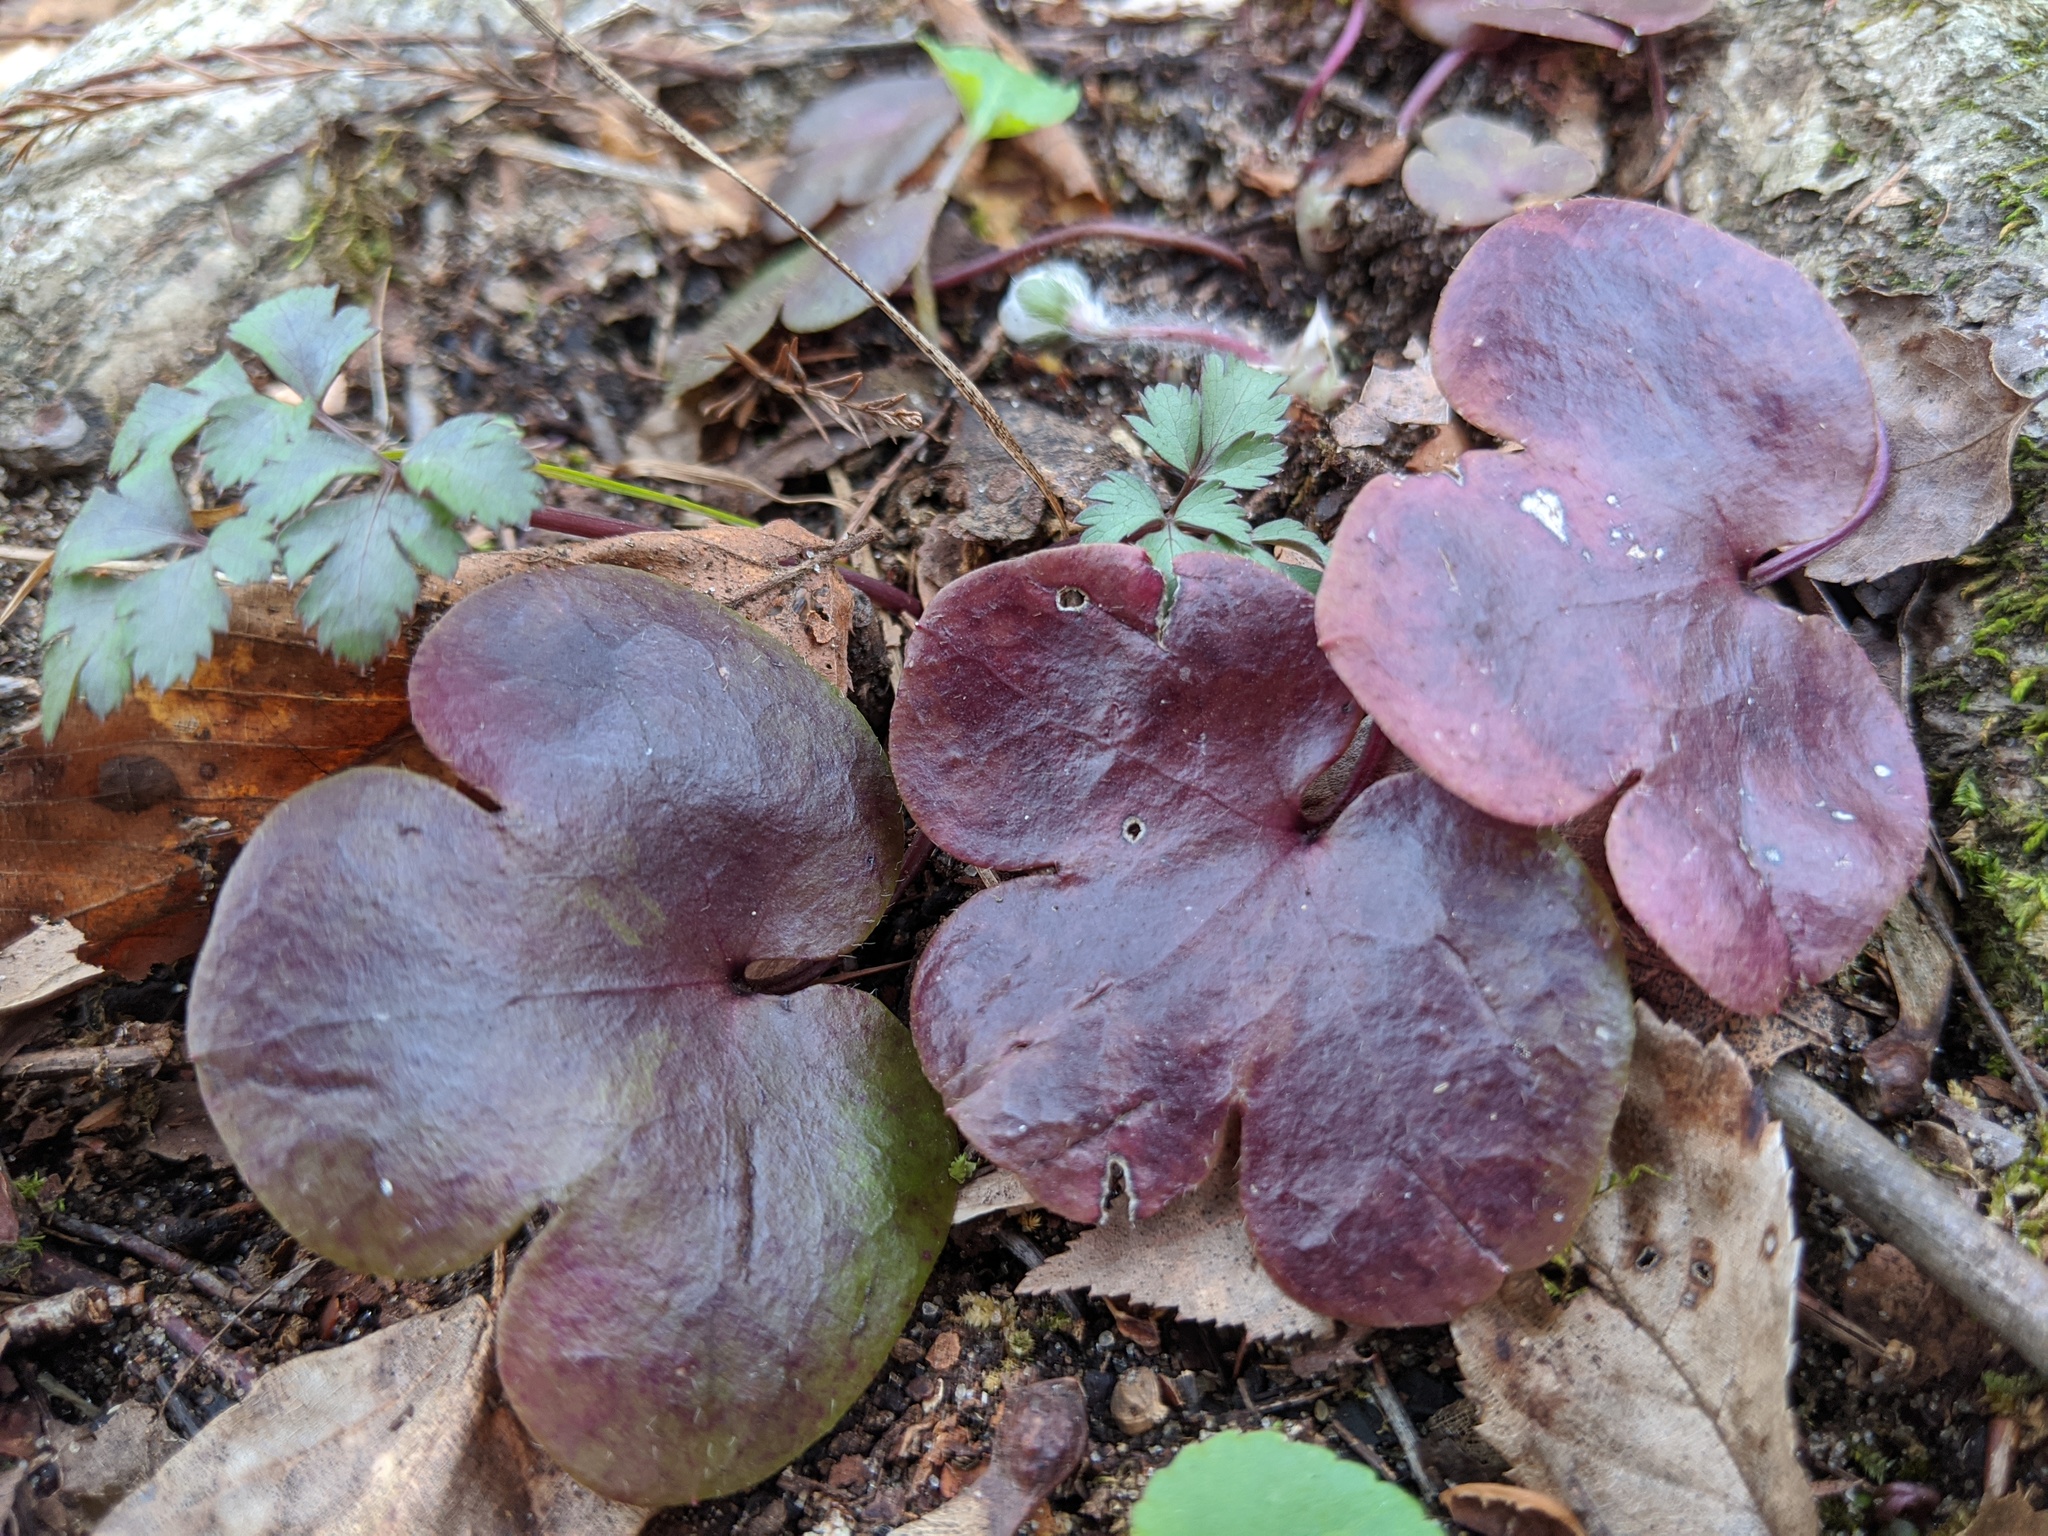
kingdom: Plantae
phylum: Tracheophyta
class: Magnoliopsida
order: Ranunculales
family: Ranunculaceae
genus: Hepatica
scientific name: Hepatica americana
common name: American hepatica
